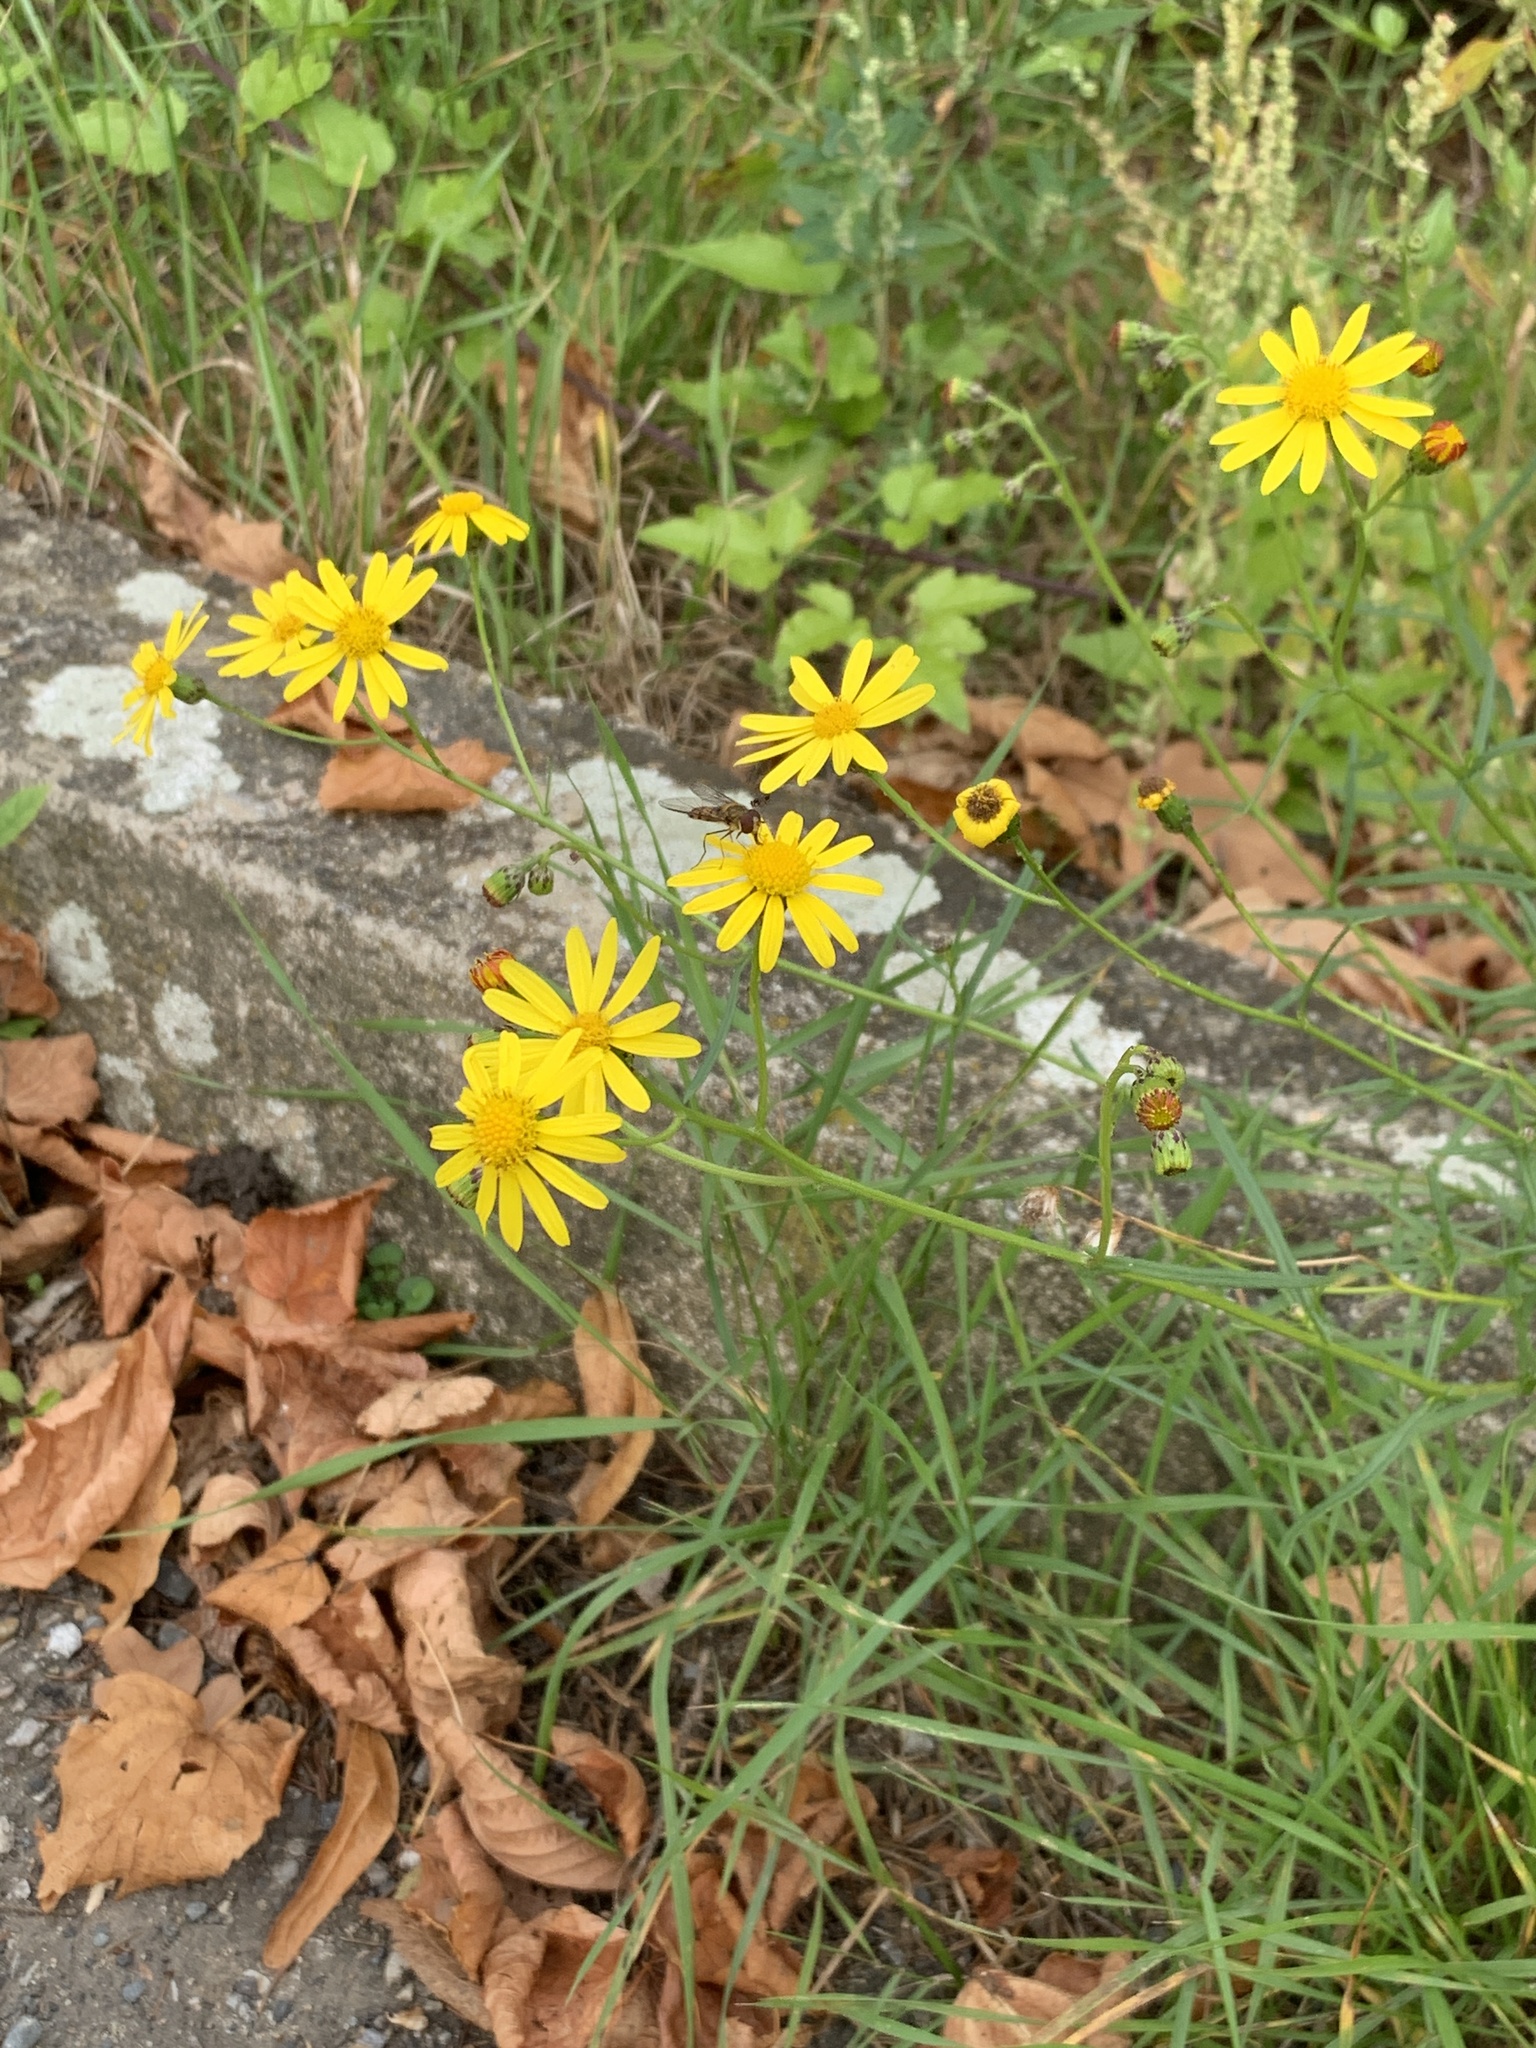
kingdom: Plantae
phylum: Tracheophyta
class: Magnoliopsida
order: Asterales
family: Asteraceae
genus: Senecio
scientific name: Senecio inaequidens
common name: Narrow-leaved ragwort
